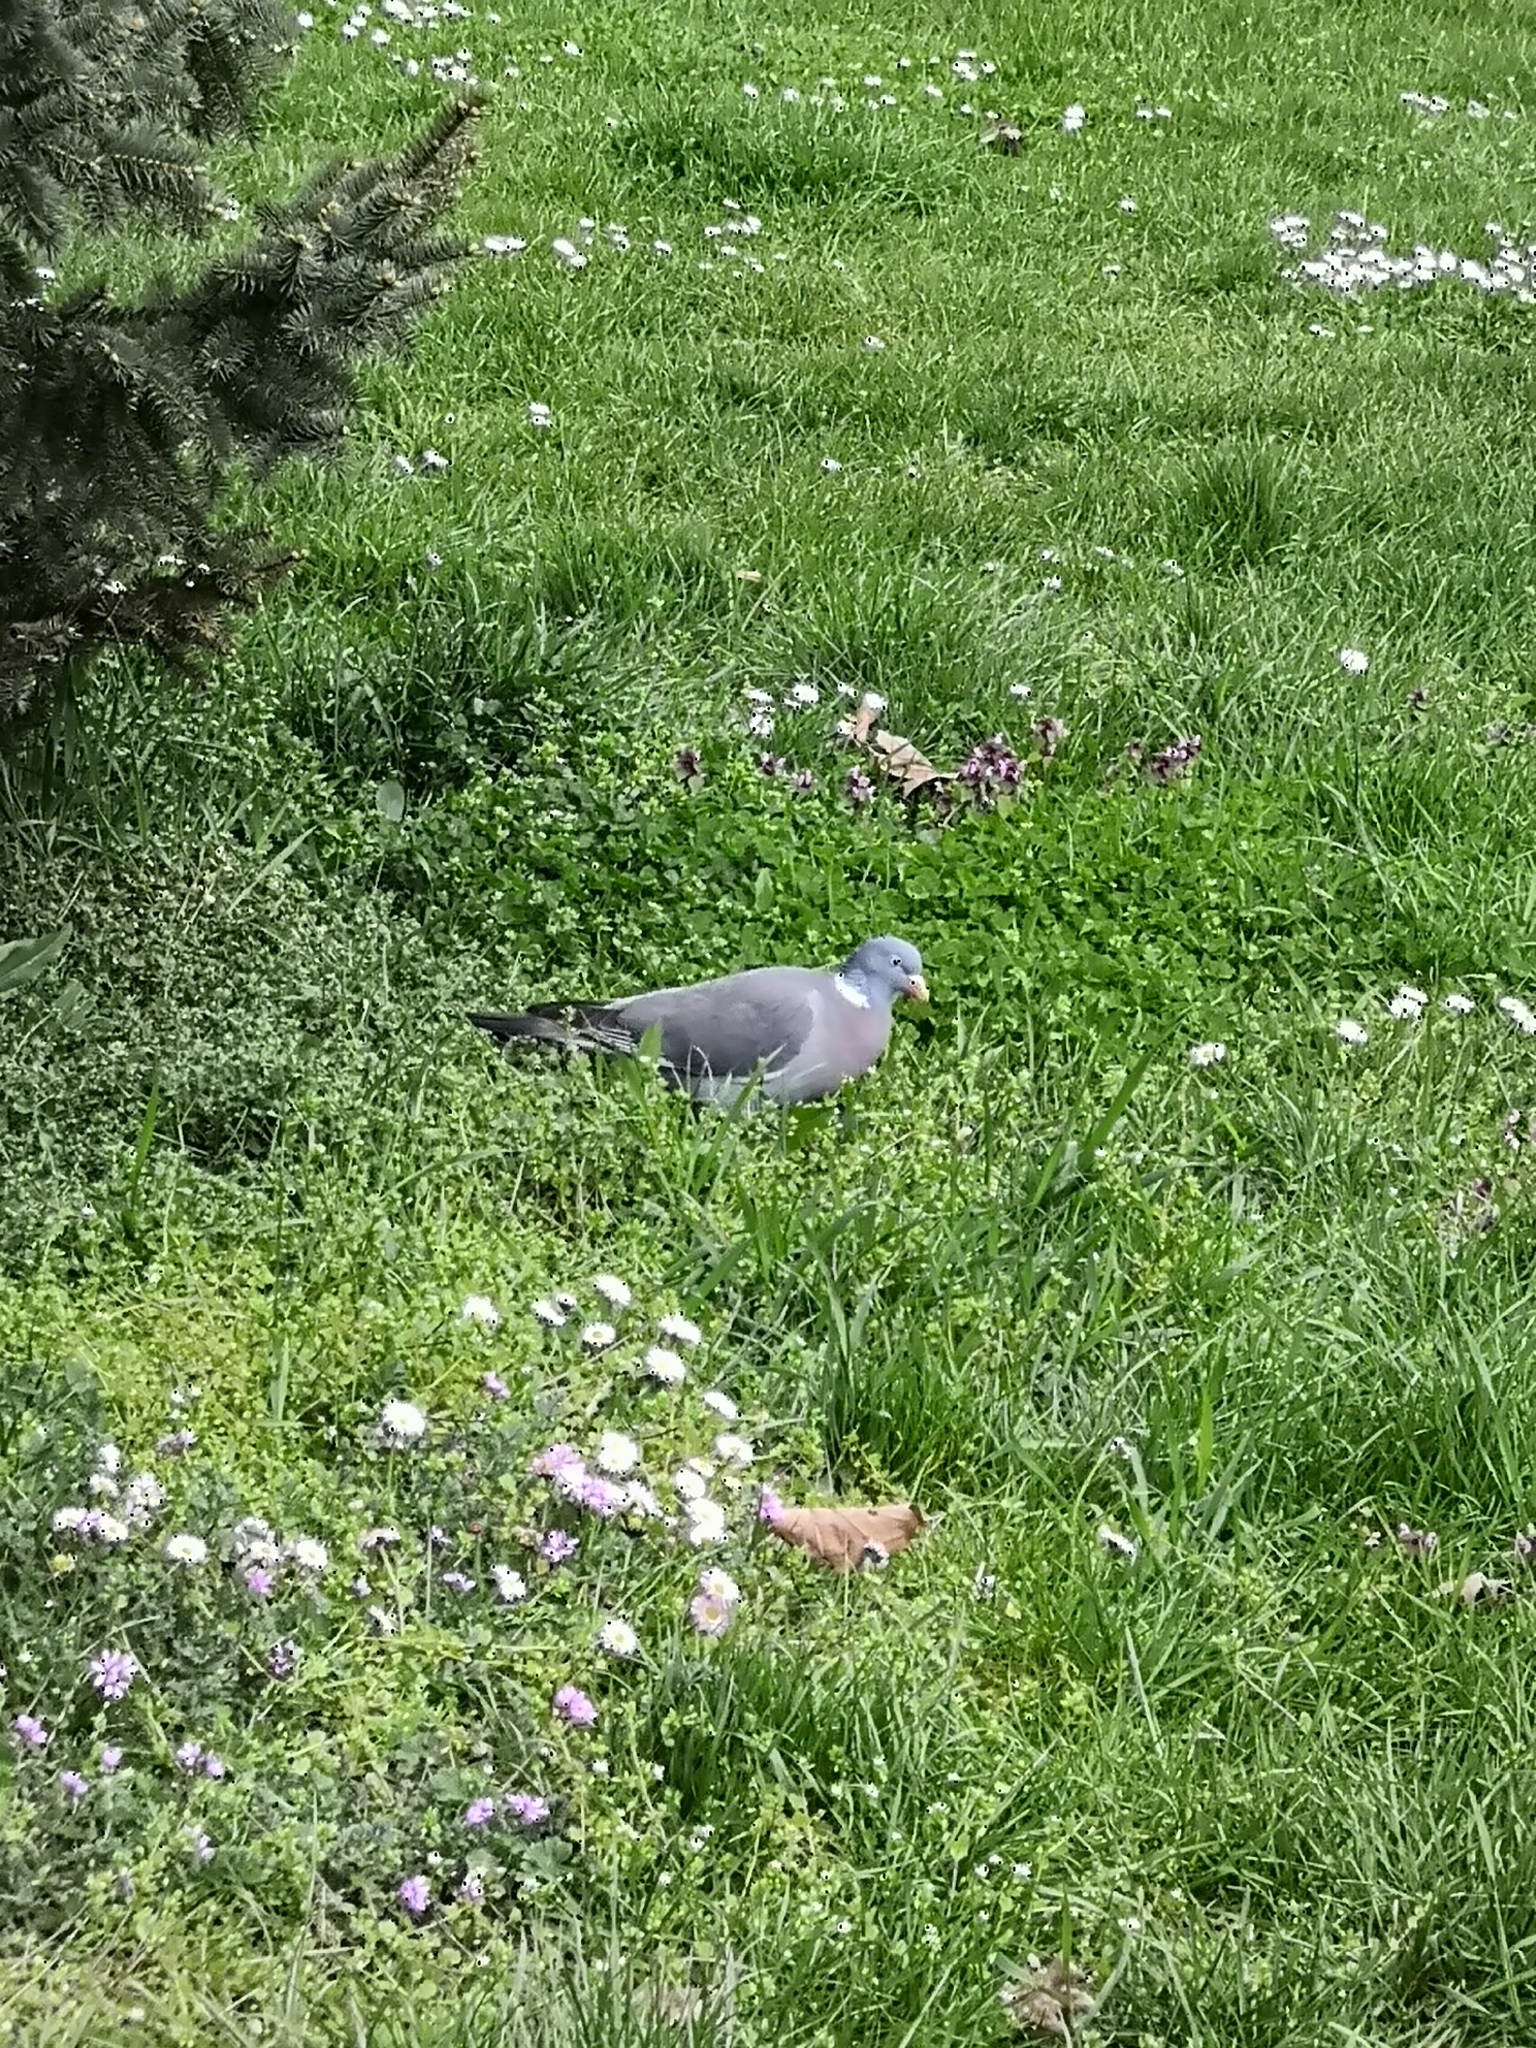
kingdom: Animalia
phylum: Chordata
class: Aves
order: Columbiformes
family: Columbidae
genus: Columba
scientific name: Columba palumbus
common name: Common wood pigeon
